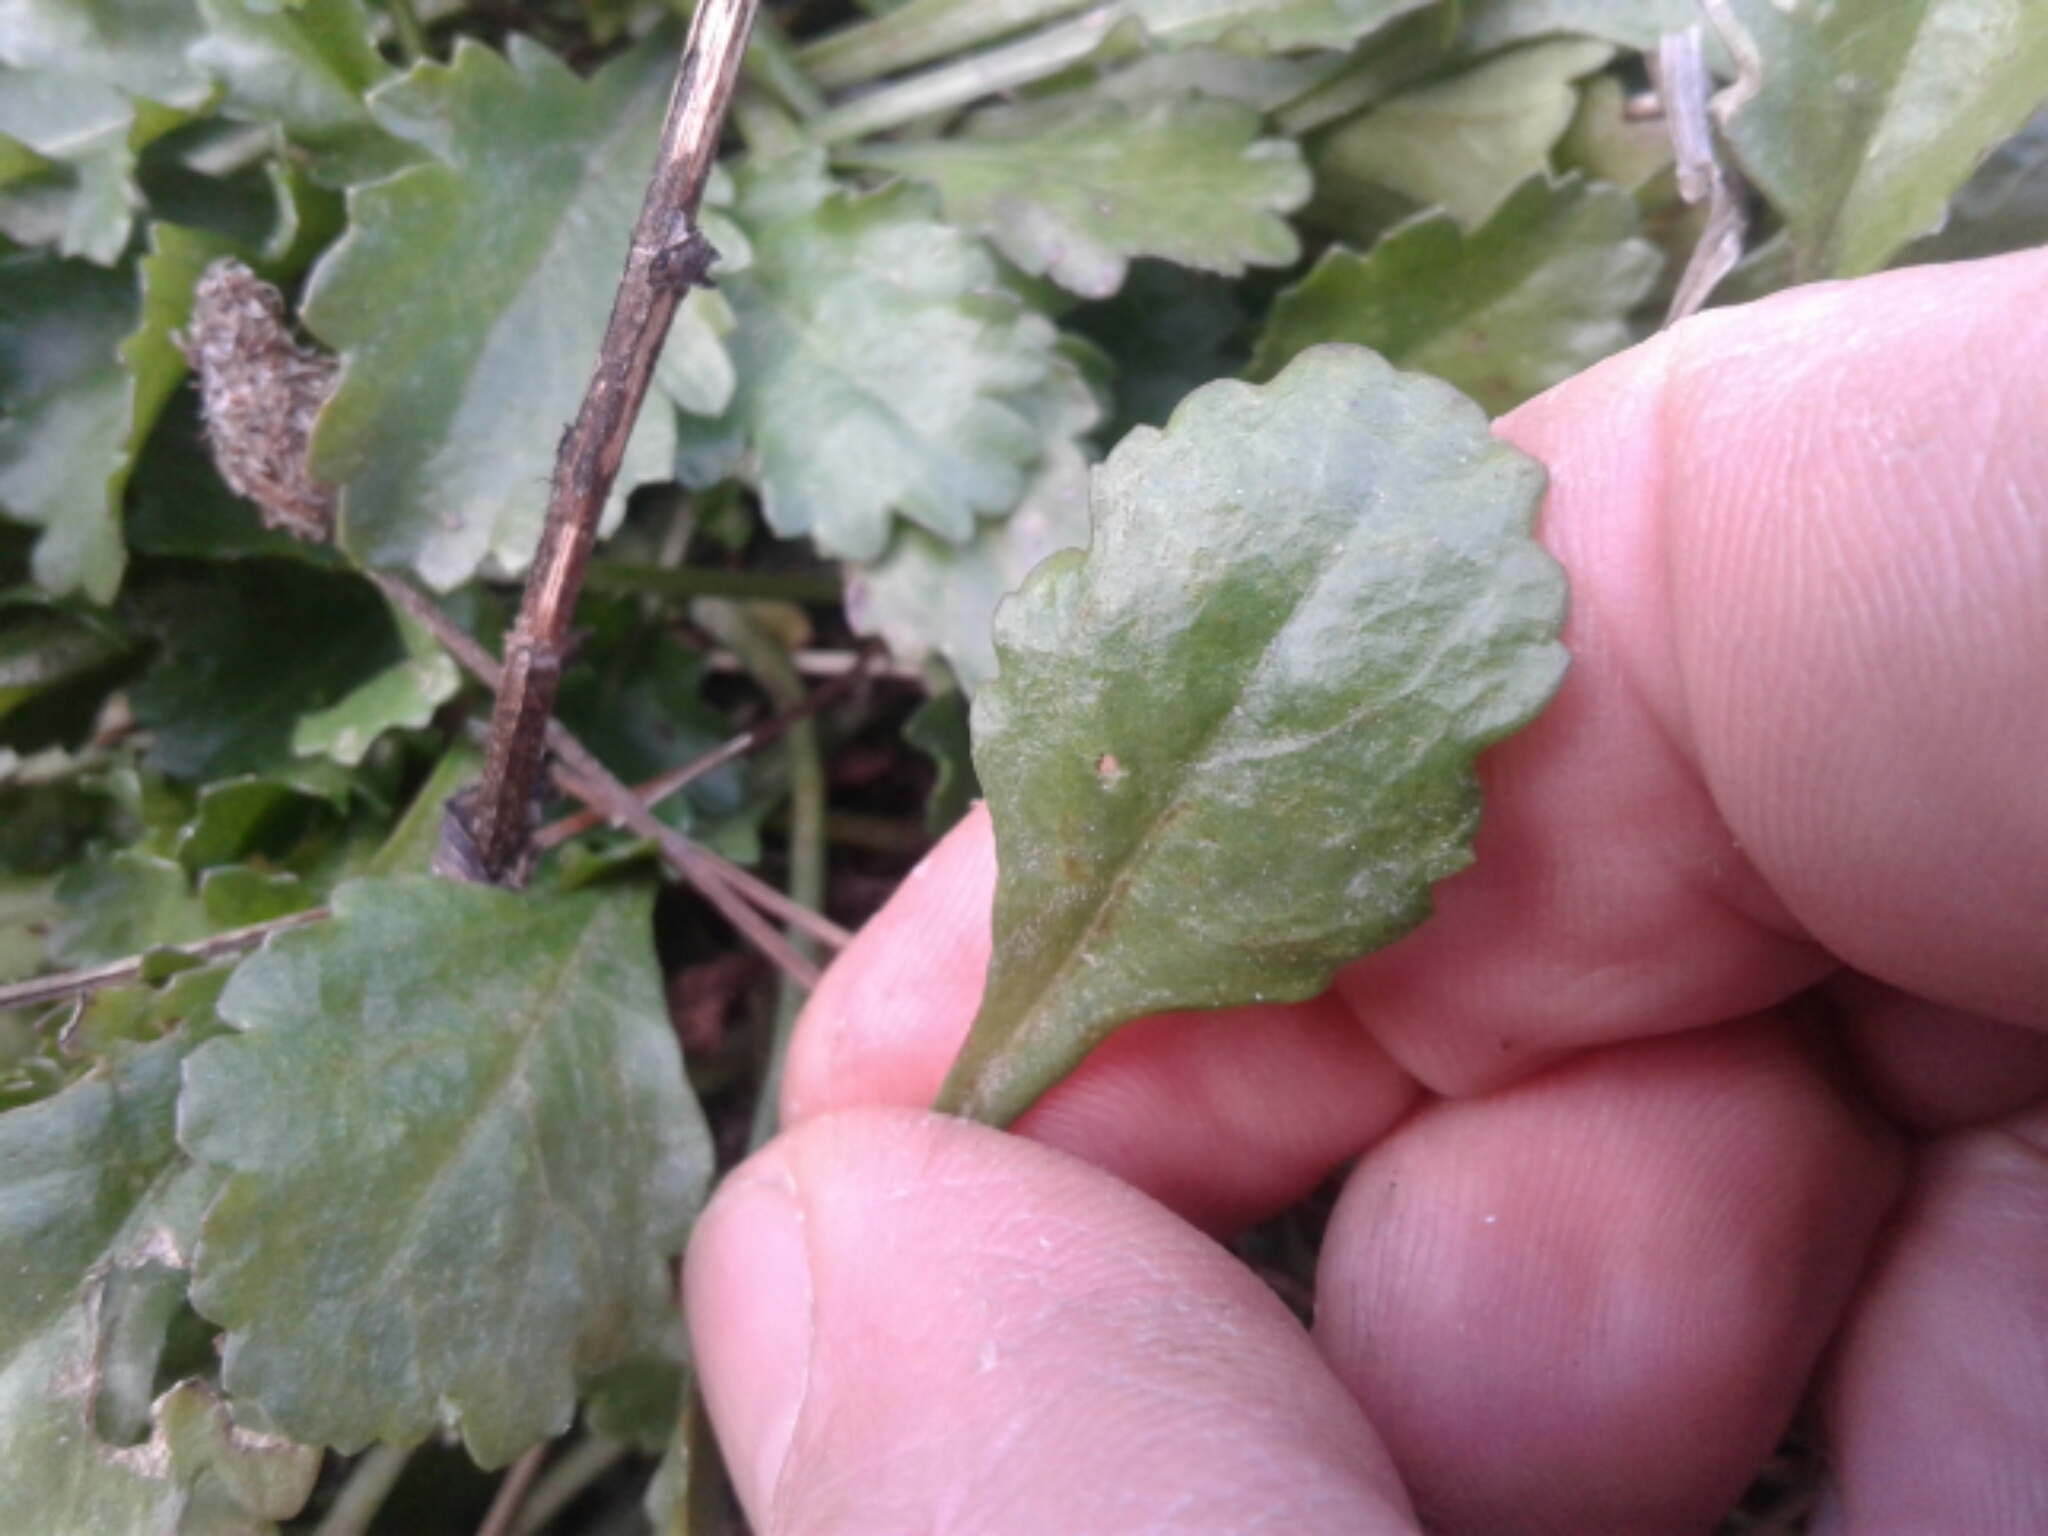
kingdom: Plantae
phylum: Tracheophyta
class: Magnoliopsida
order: Asterales
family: Asteraceae
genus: Leucanthemum
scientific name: Leucanthemum vulgare
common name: Oxeye daisy
